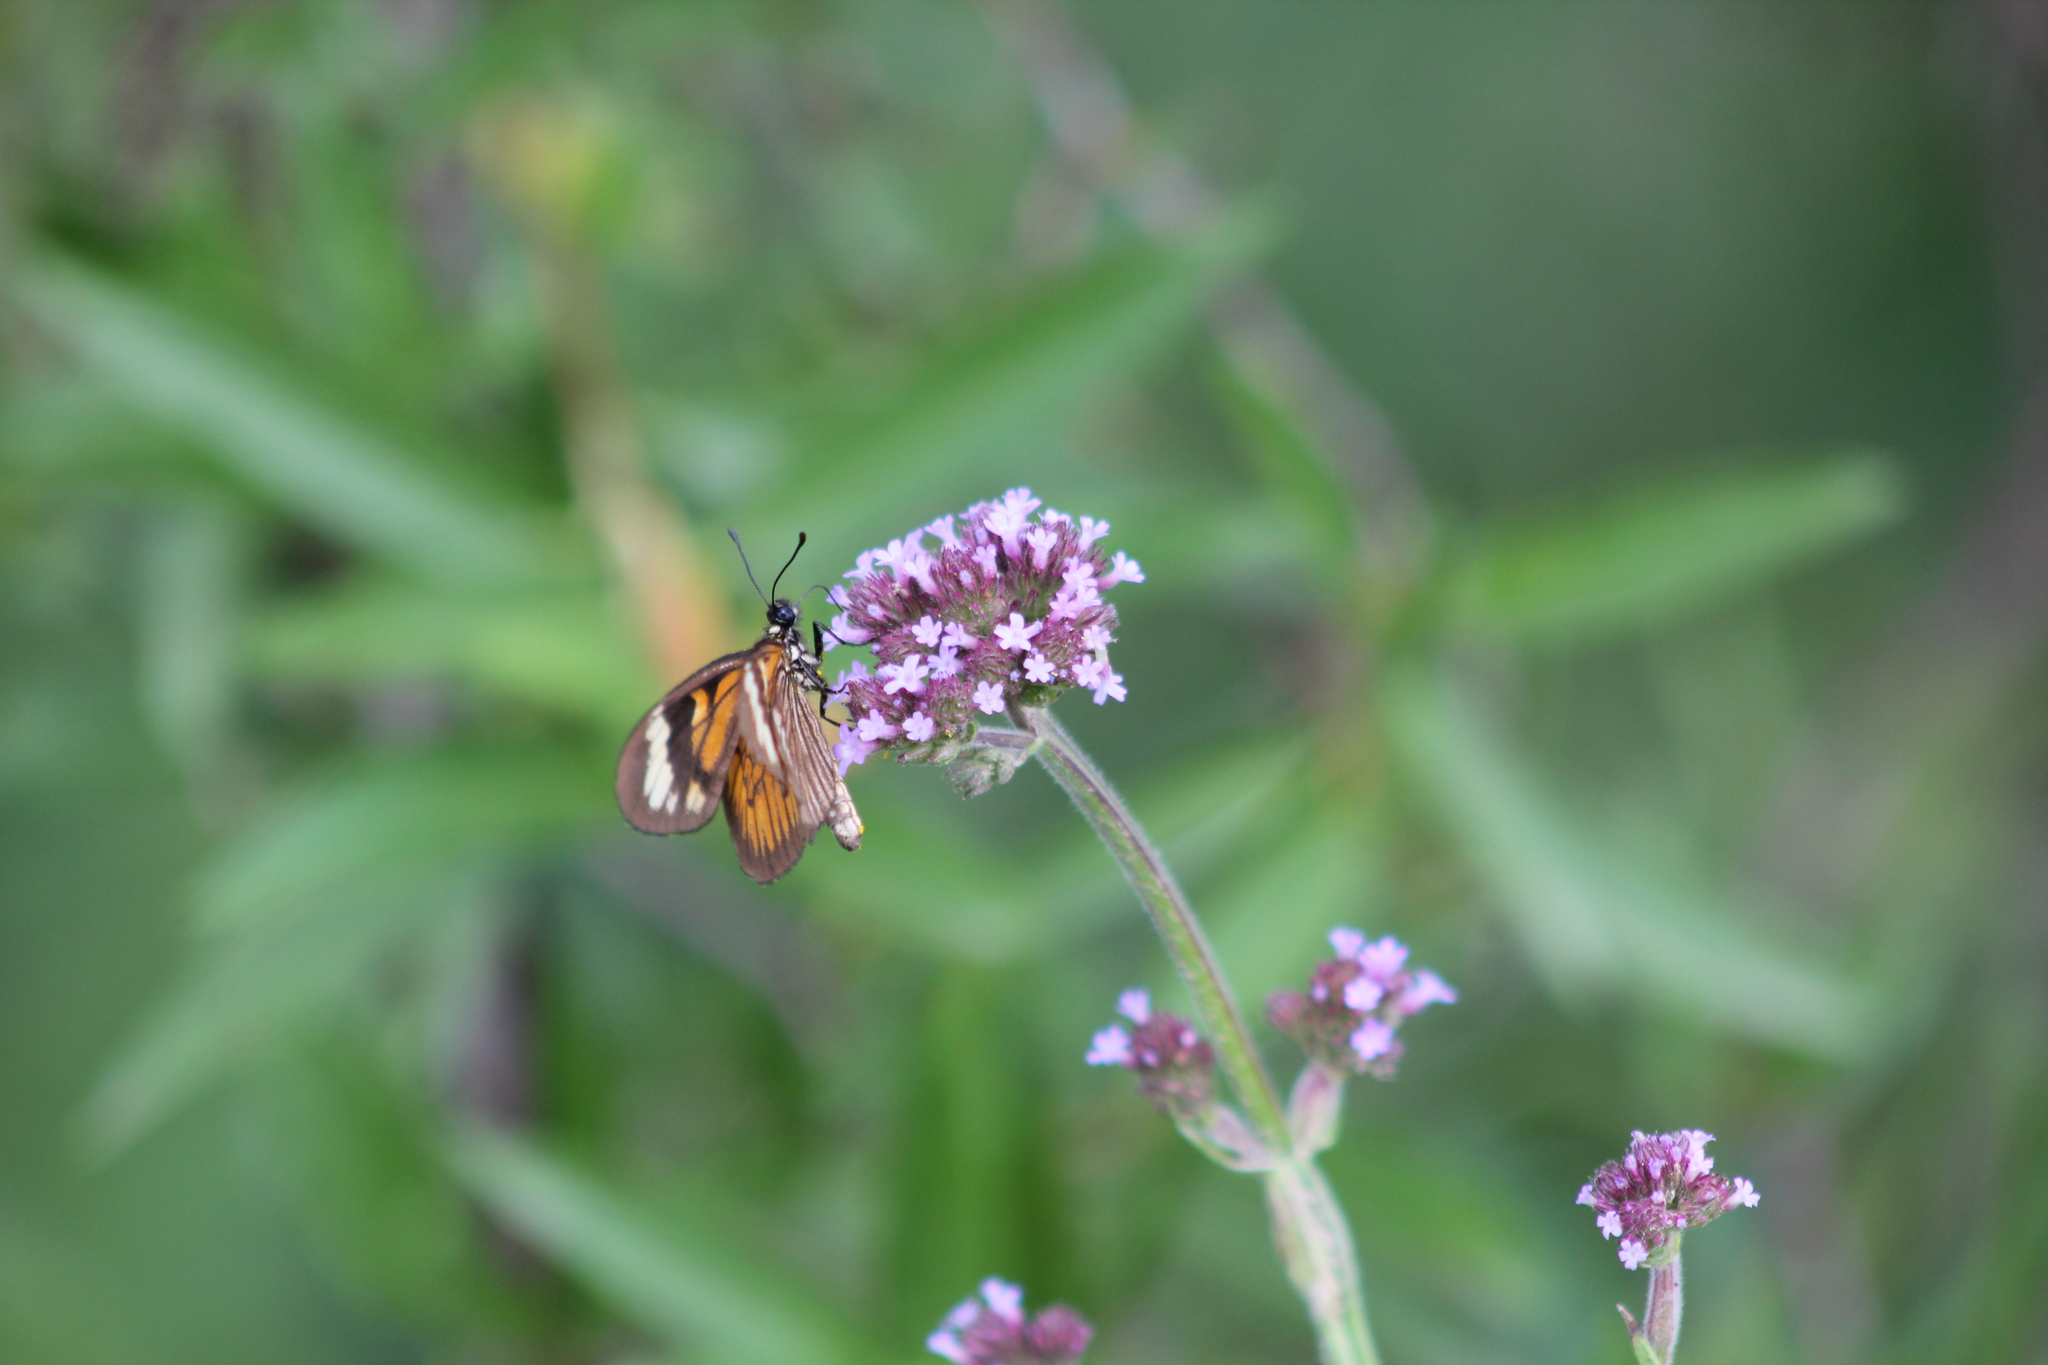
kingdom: Plantae
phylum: Tracheophyta
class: Magnoliopsida
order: Lamiales
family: Verbenaceae
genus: Verbena
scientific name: Verbena bonariensis
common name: Purpletop vervain
